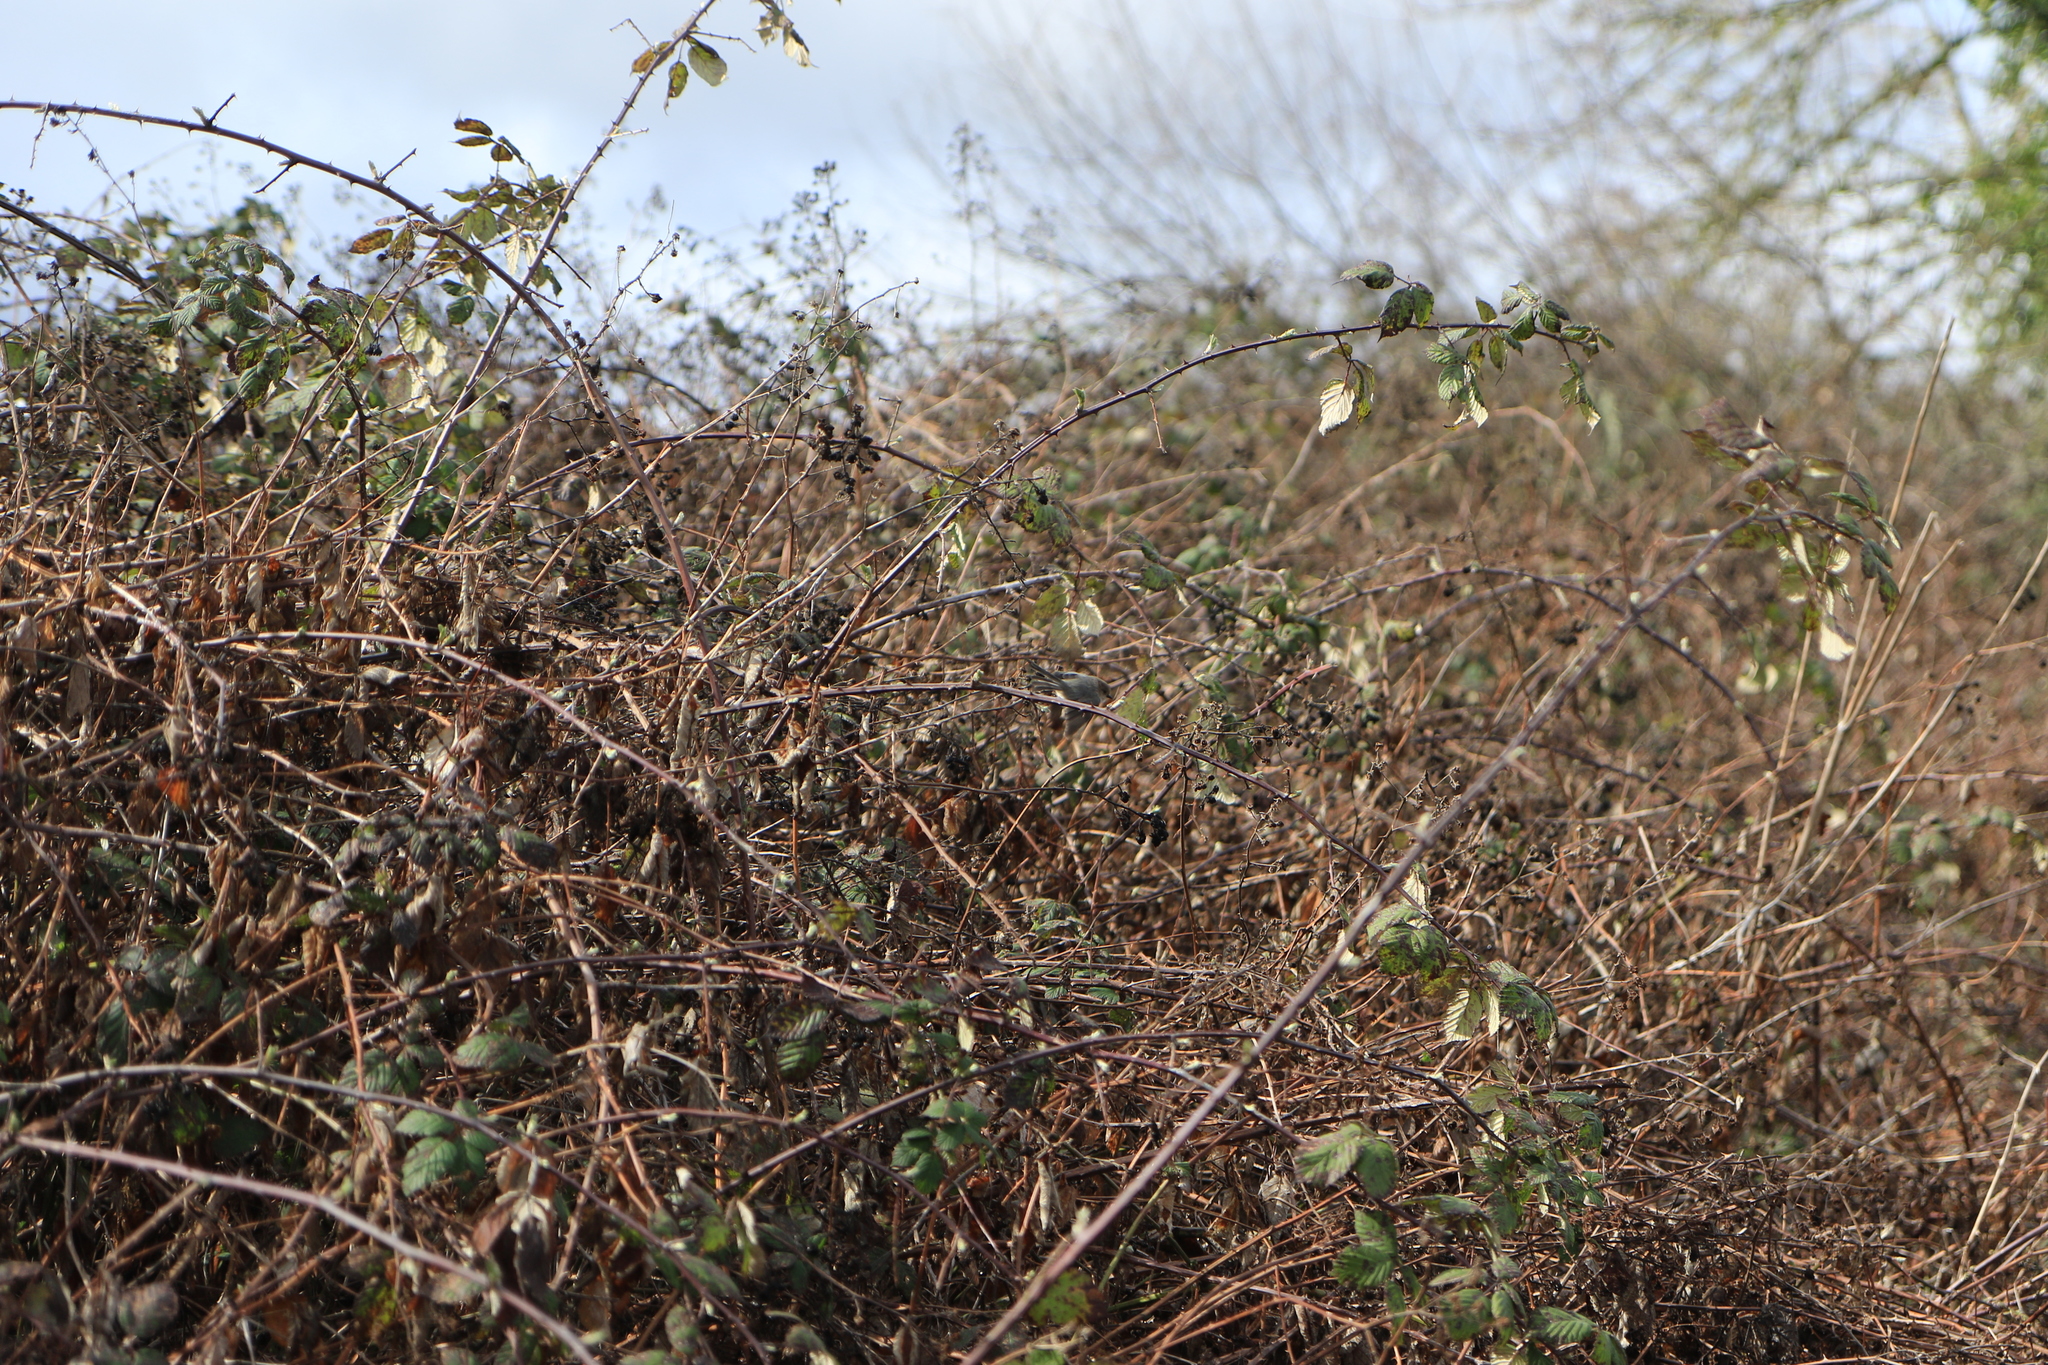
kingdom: Animalia
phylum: Chordata
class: Aves
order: Passeriformes
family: Aegithalidae
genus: Psaltriparus
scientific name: Psaltriparus minimus
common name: American bushtit
